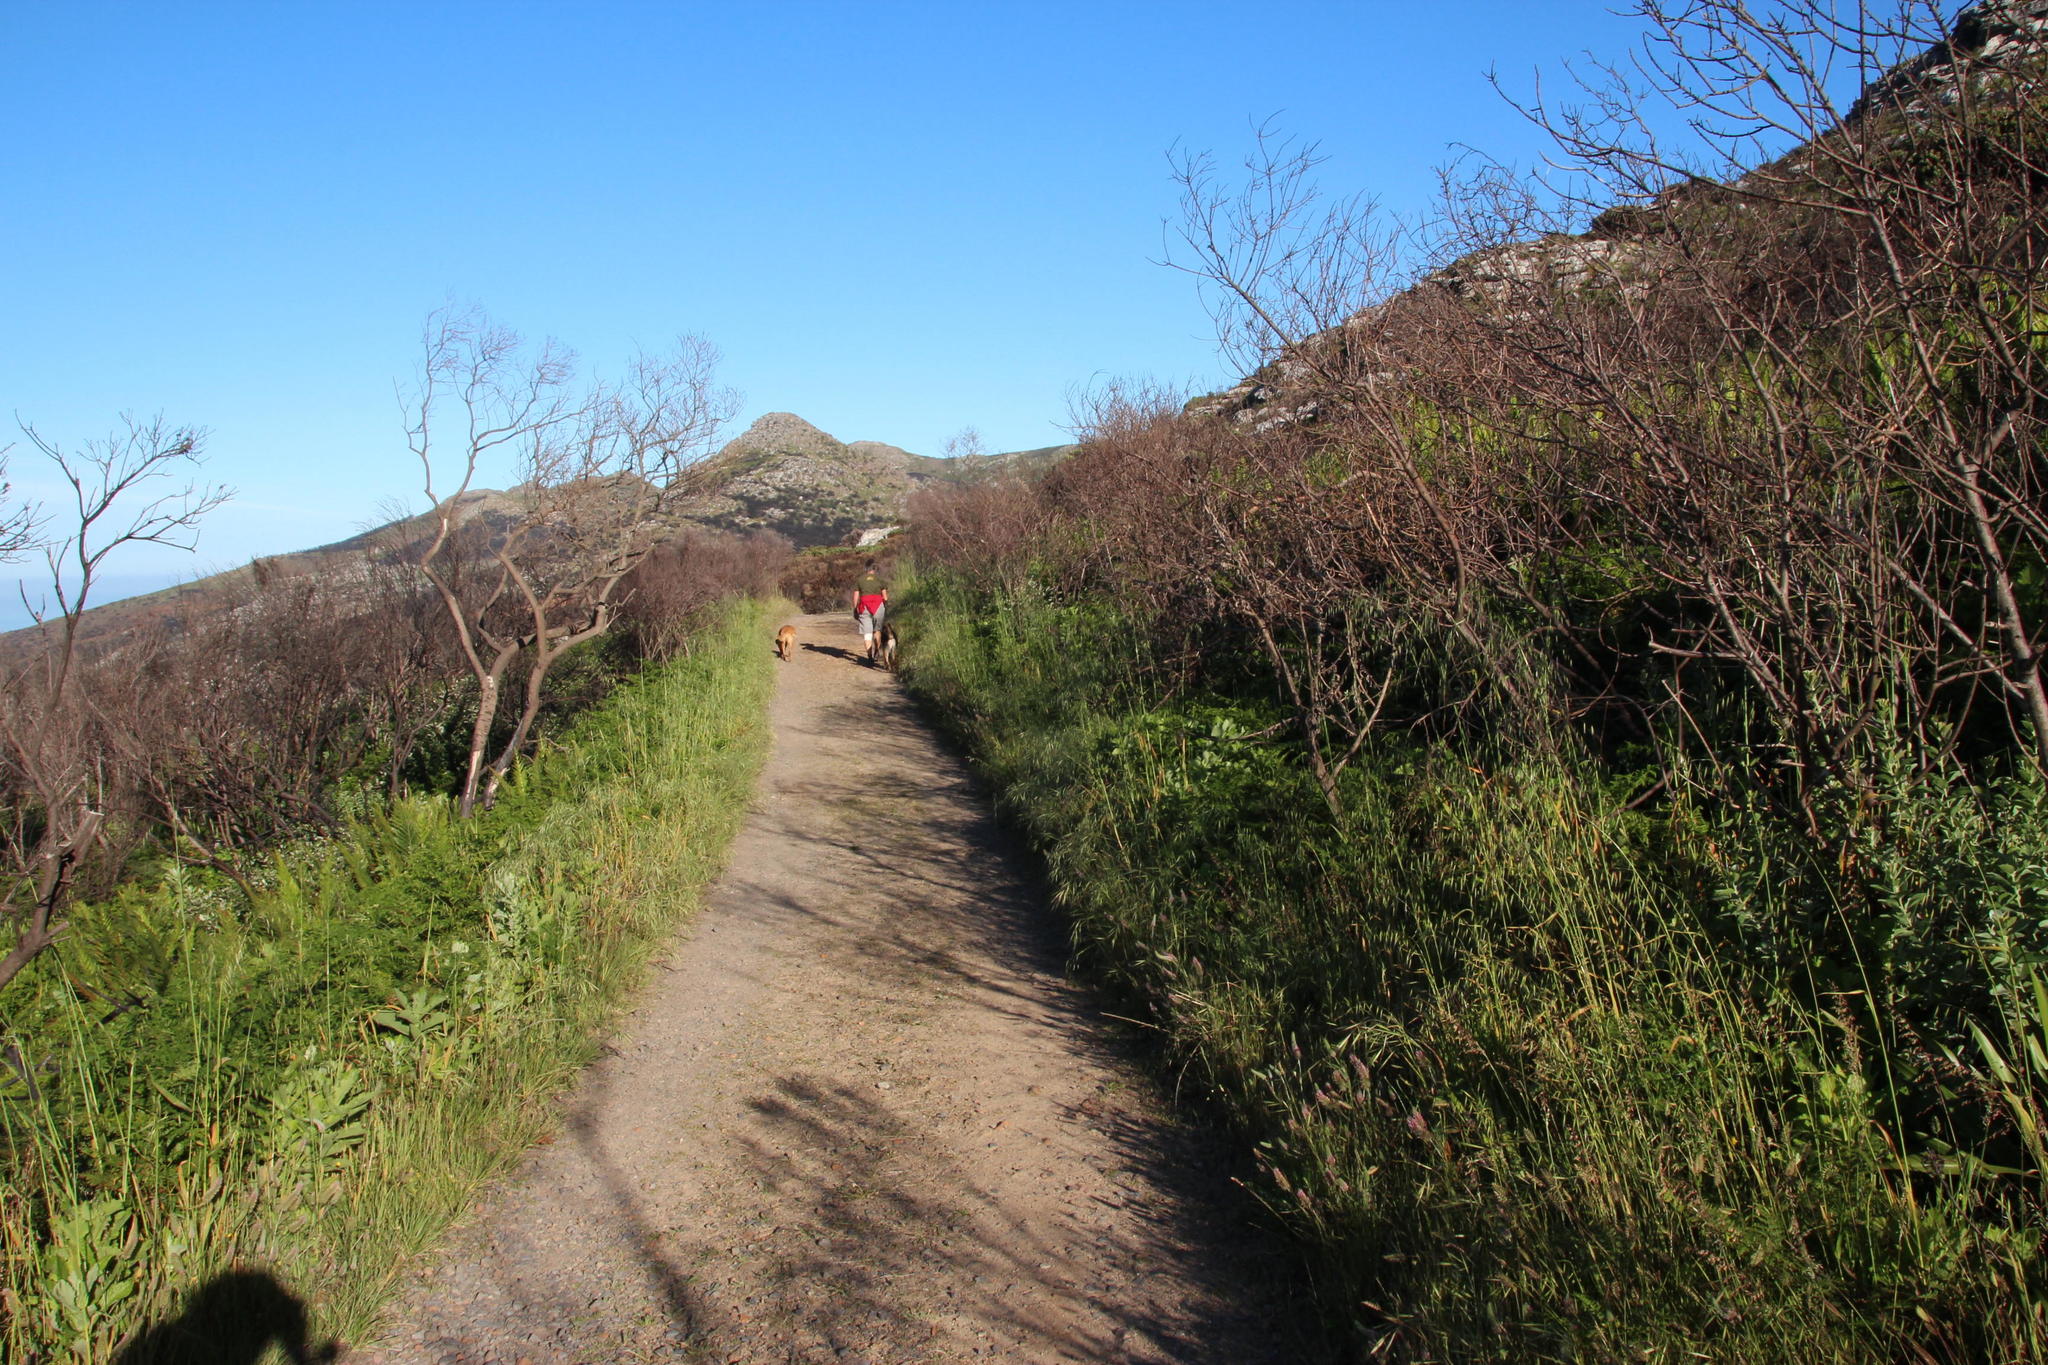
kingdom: Plantae
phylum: Tracheophyta
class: Magnoliopsida
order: Fabales
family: Fabaceae
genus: Trifolium
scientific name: Trifolium angustifolium
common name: Narrow clover
